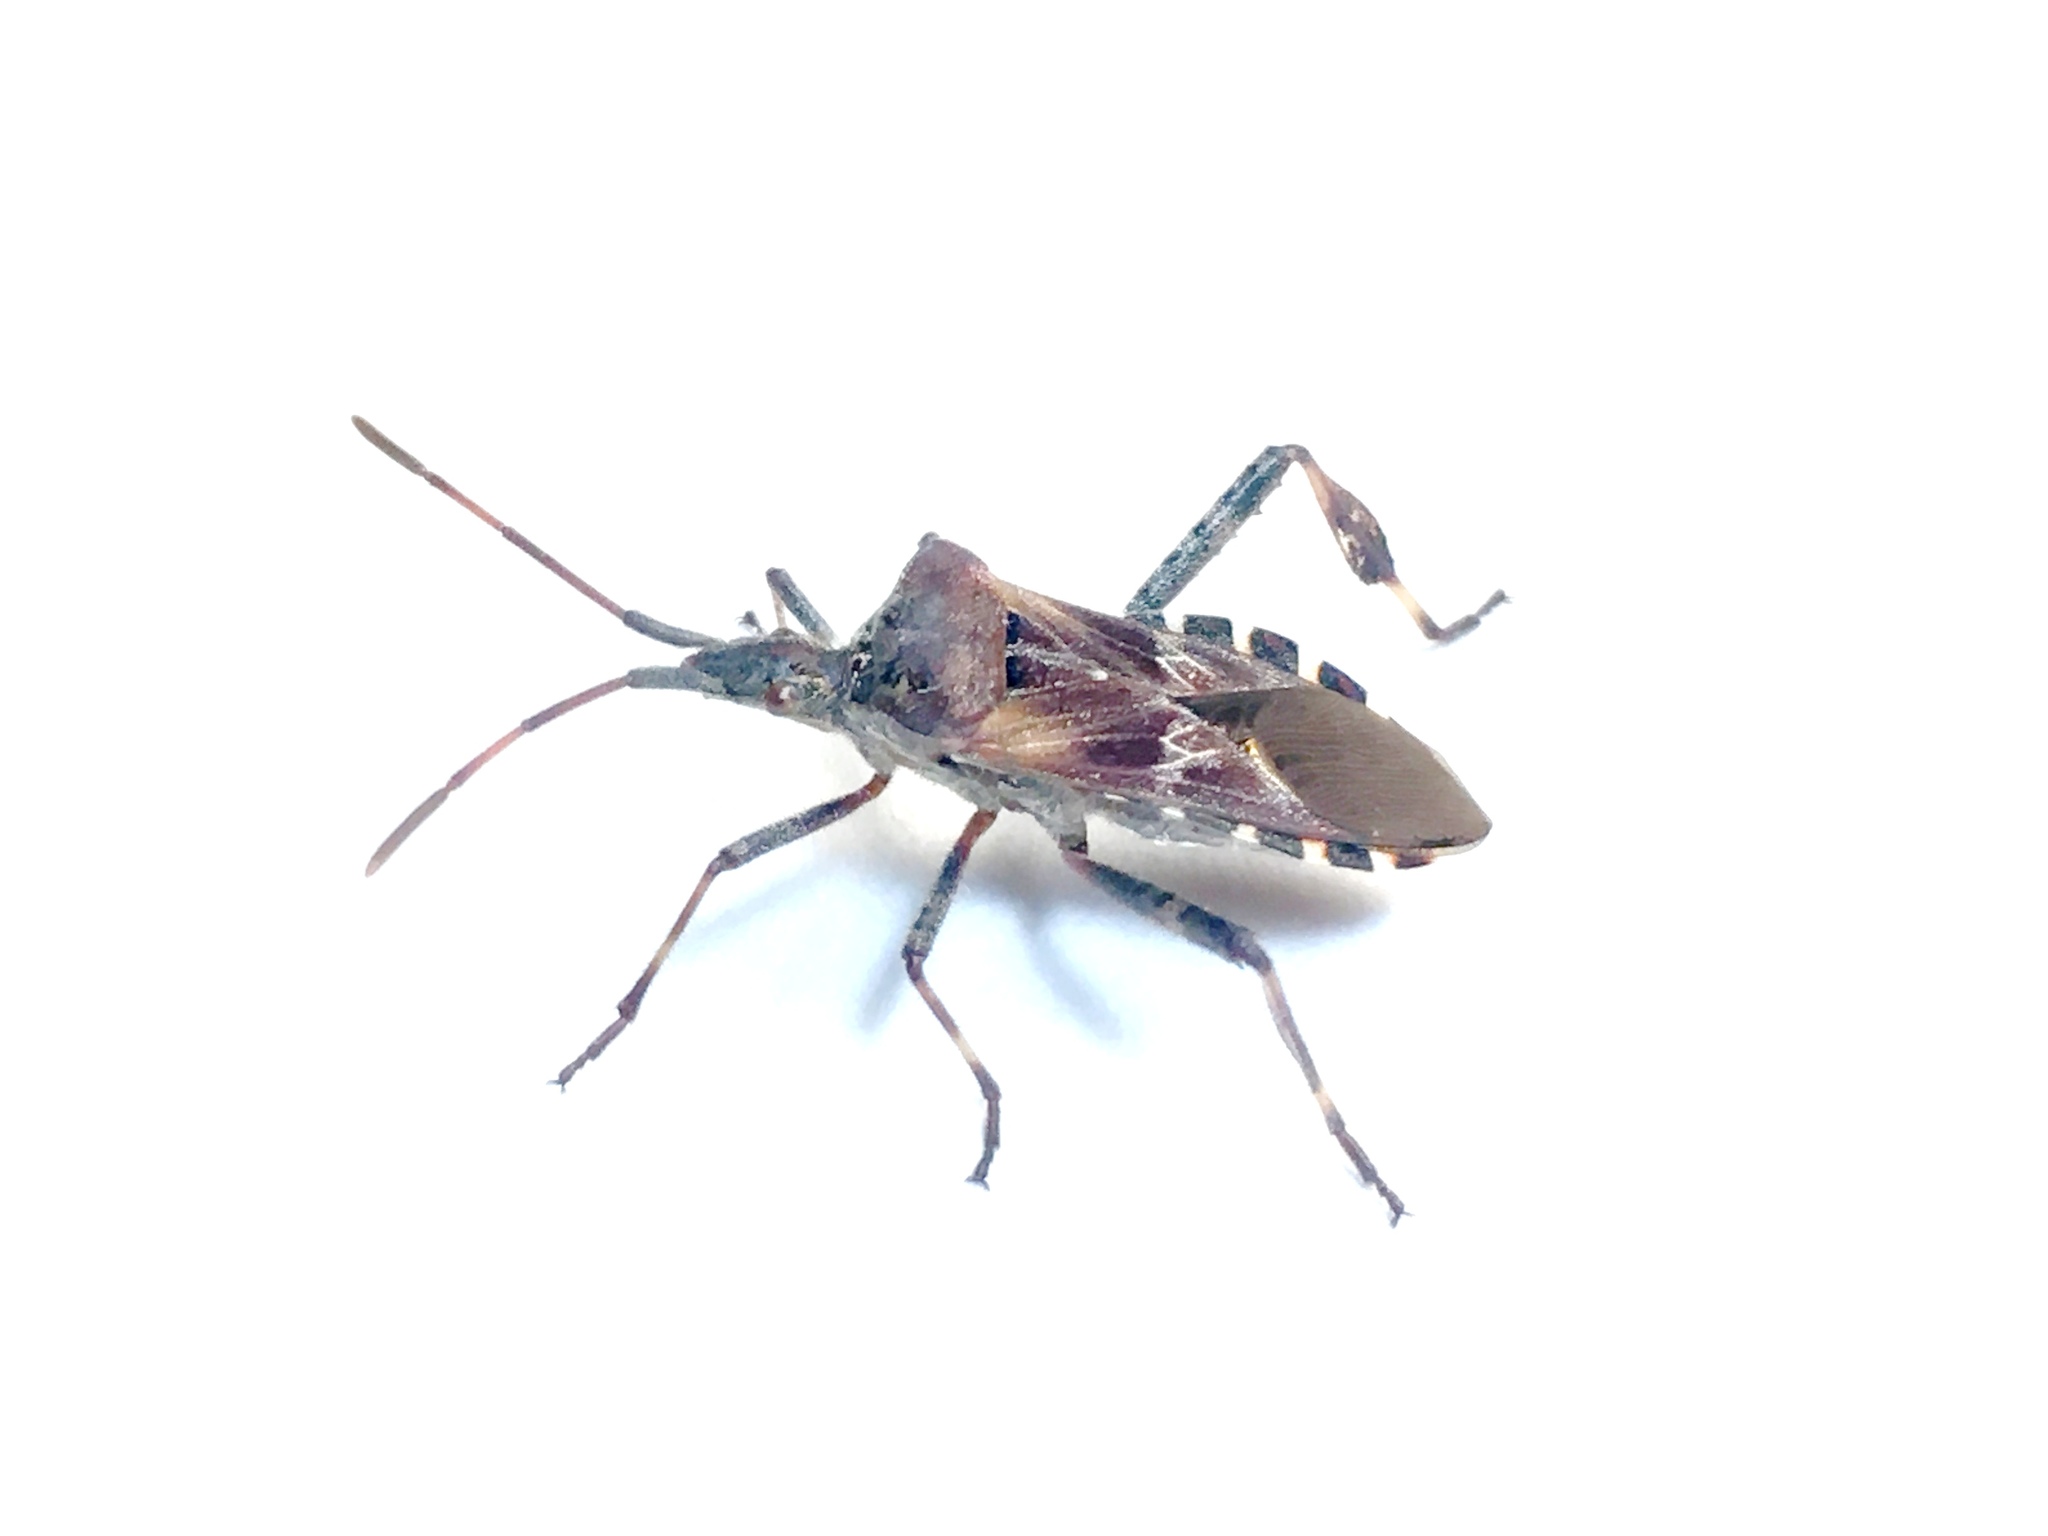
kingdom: Animalia
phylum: Arthropoda
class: Insecta
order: Hemiptera
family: Coreidae
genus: Leptoglossus
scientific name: Leptoglossus occidentalis
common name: Western conifer-seed bug
